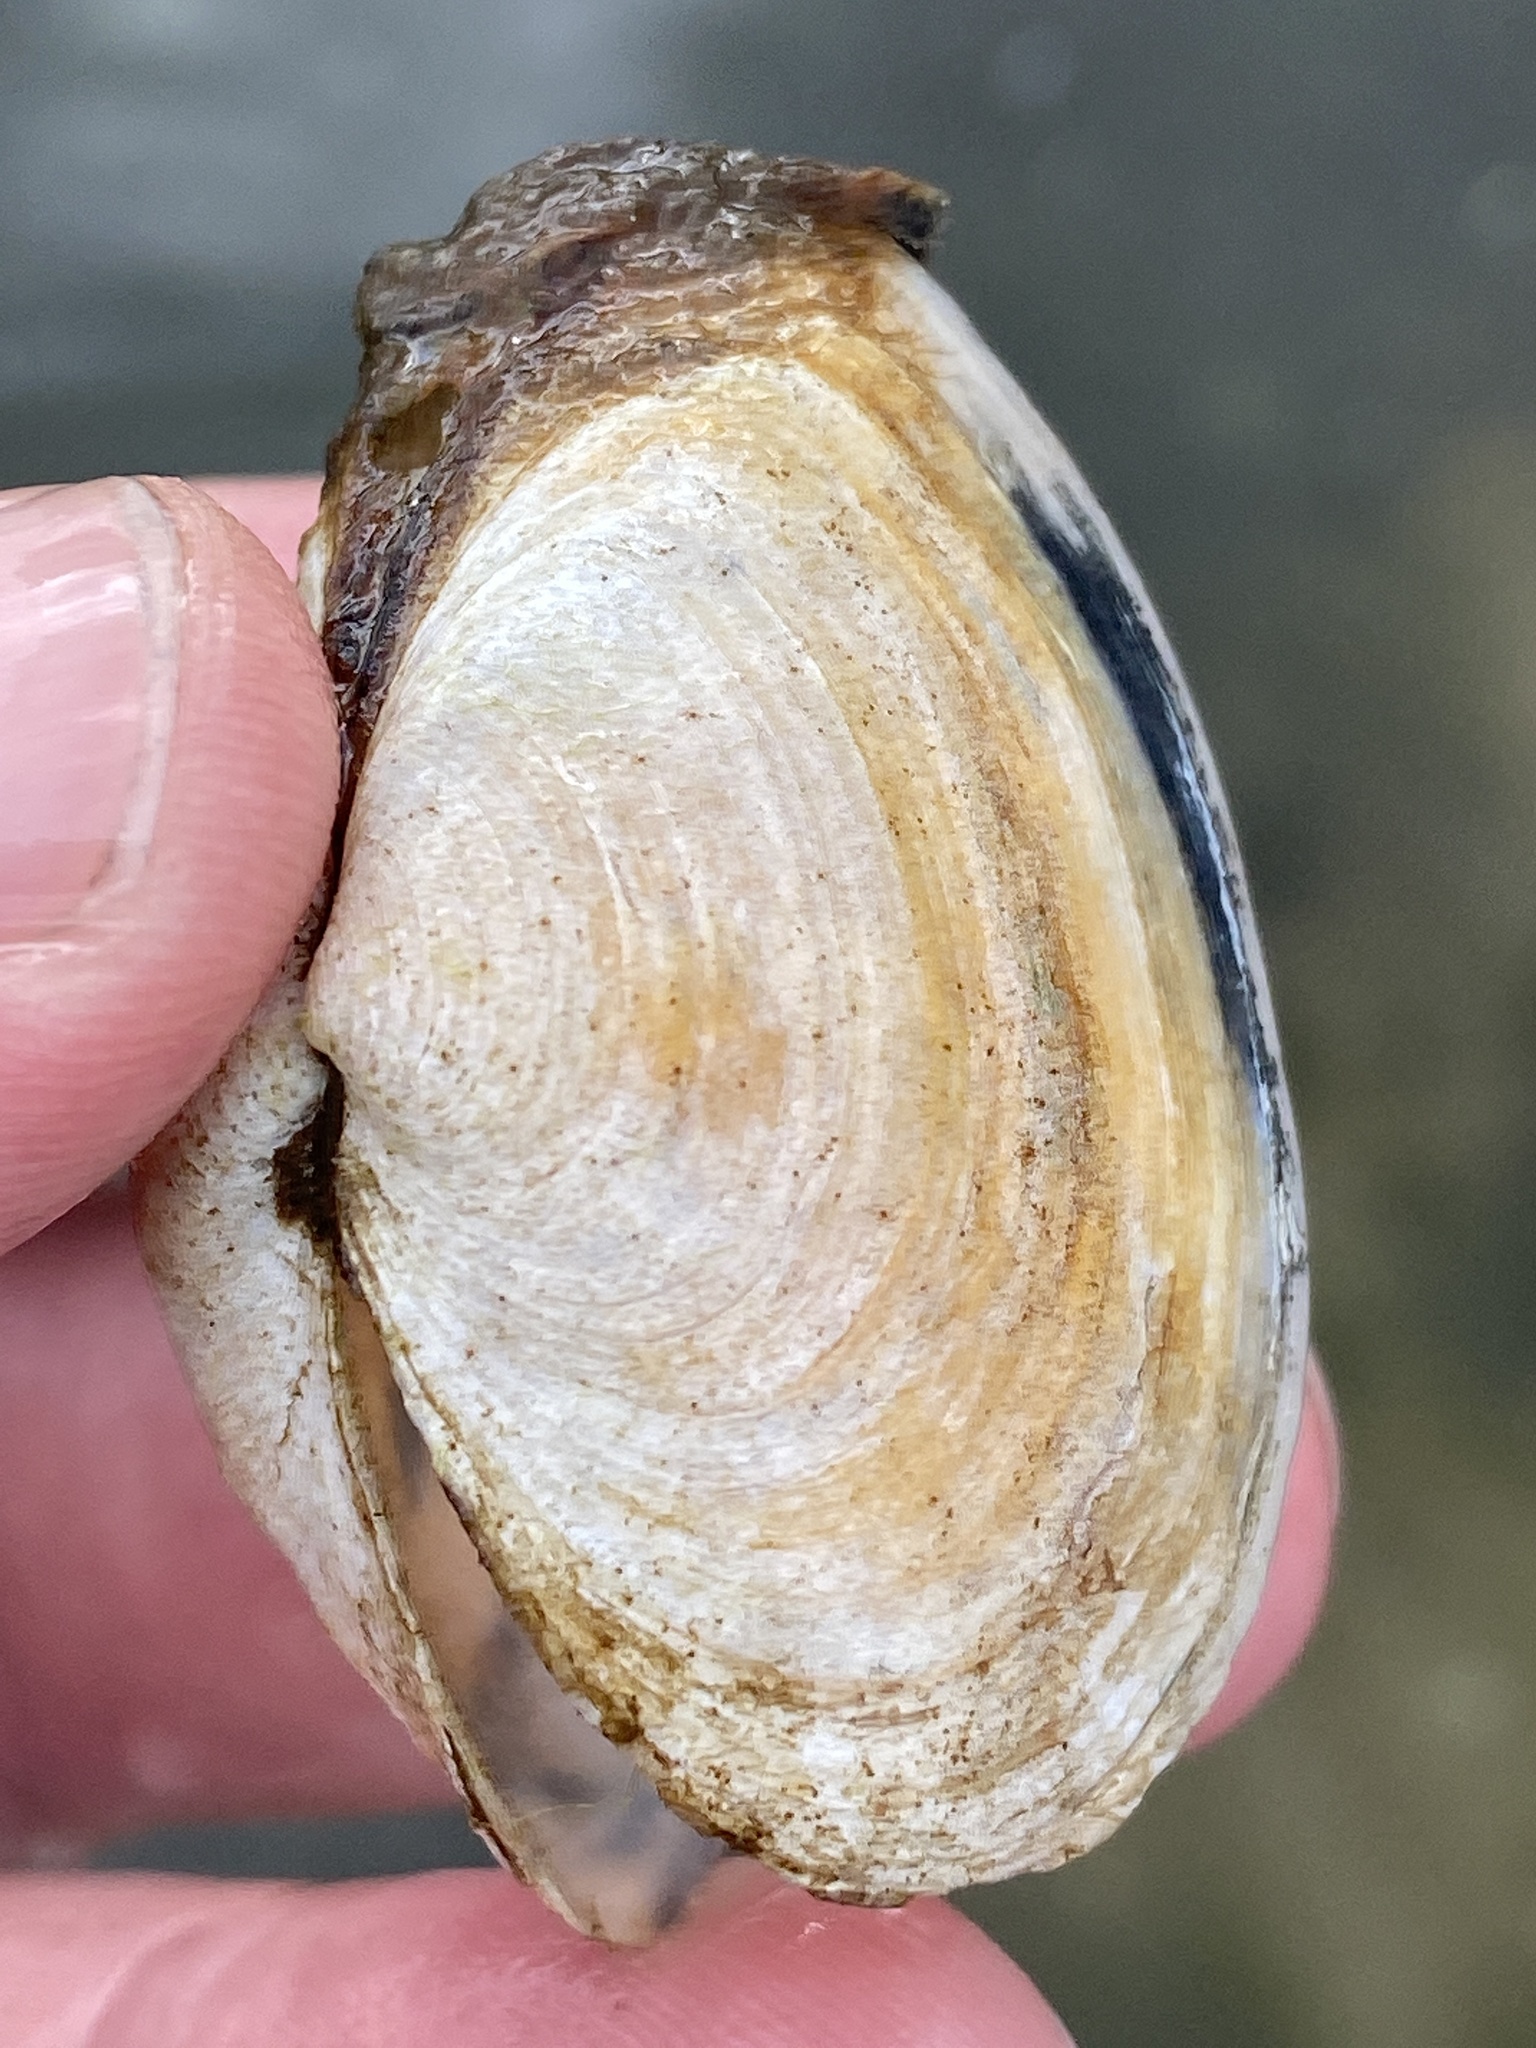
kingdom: Animalia
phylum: Mollusca
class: Bivalvia
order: Myida
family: Myidae
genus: Mya
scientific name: Mya arenaria
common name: Soft-shelled clam
